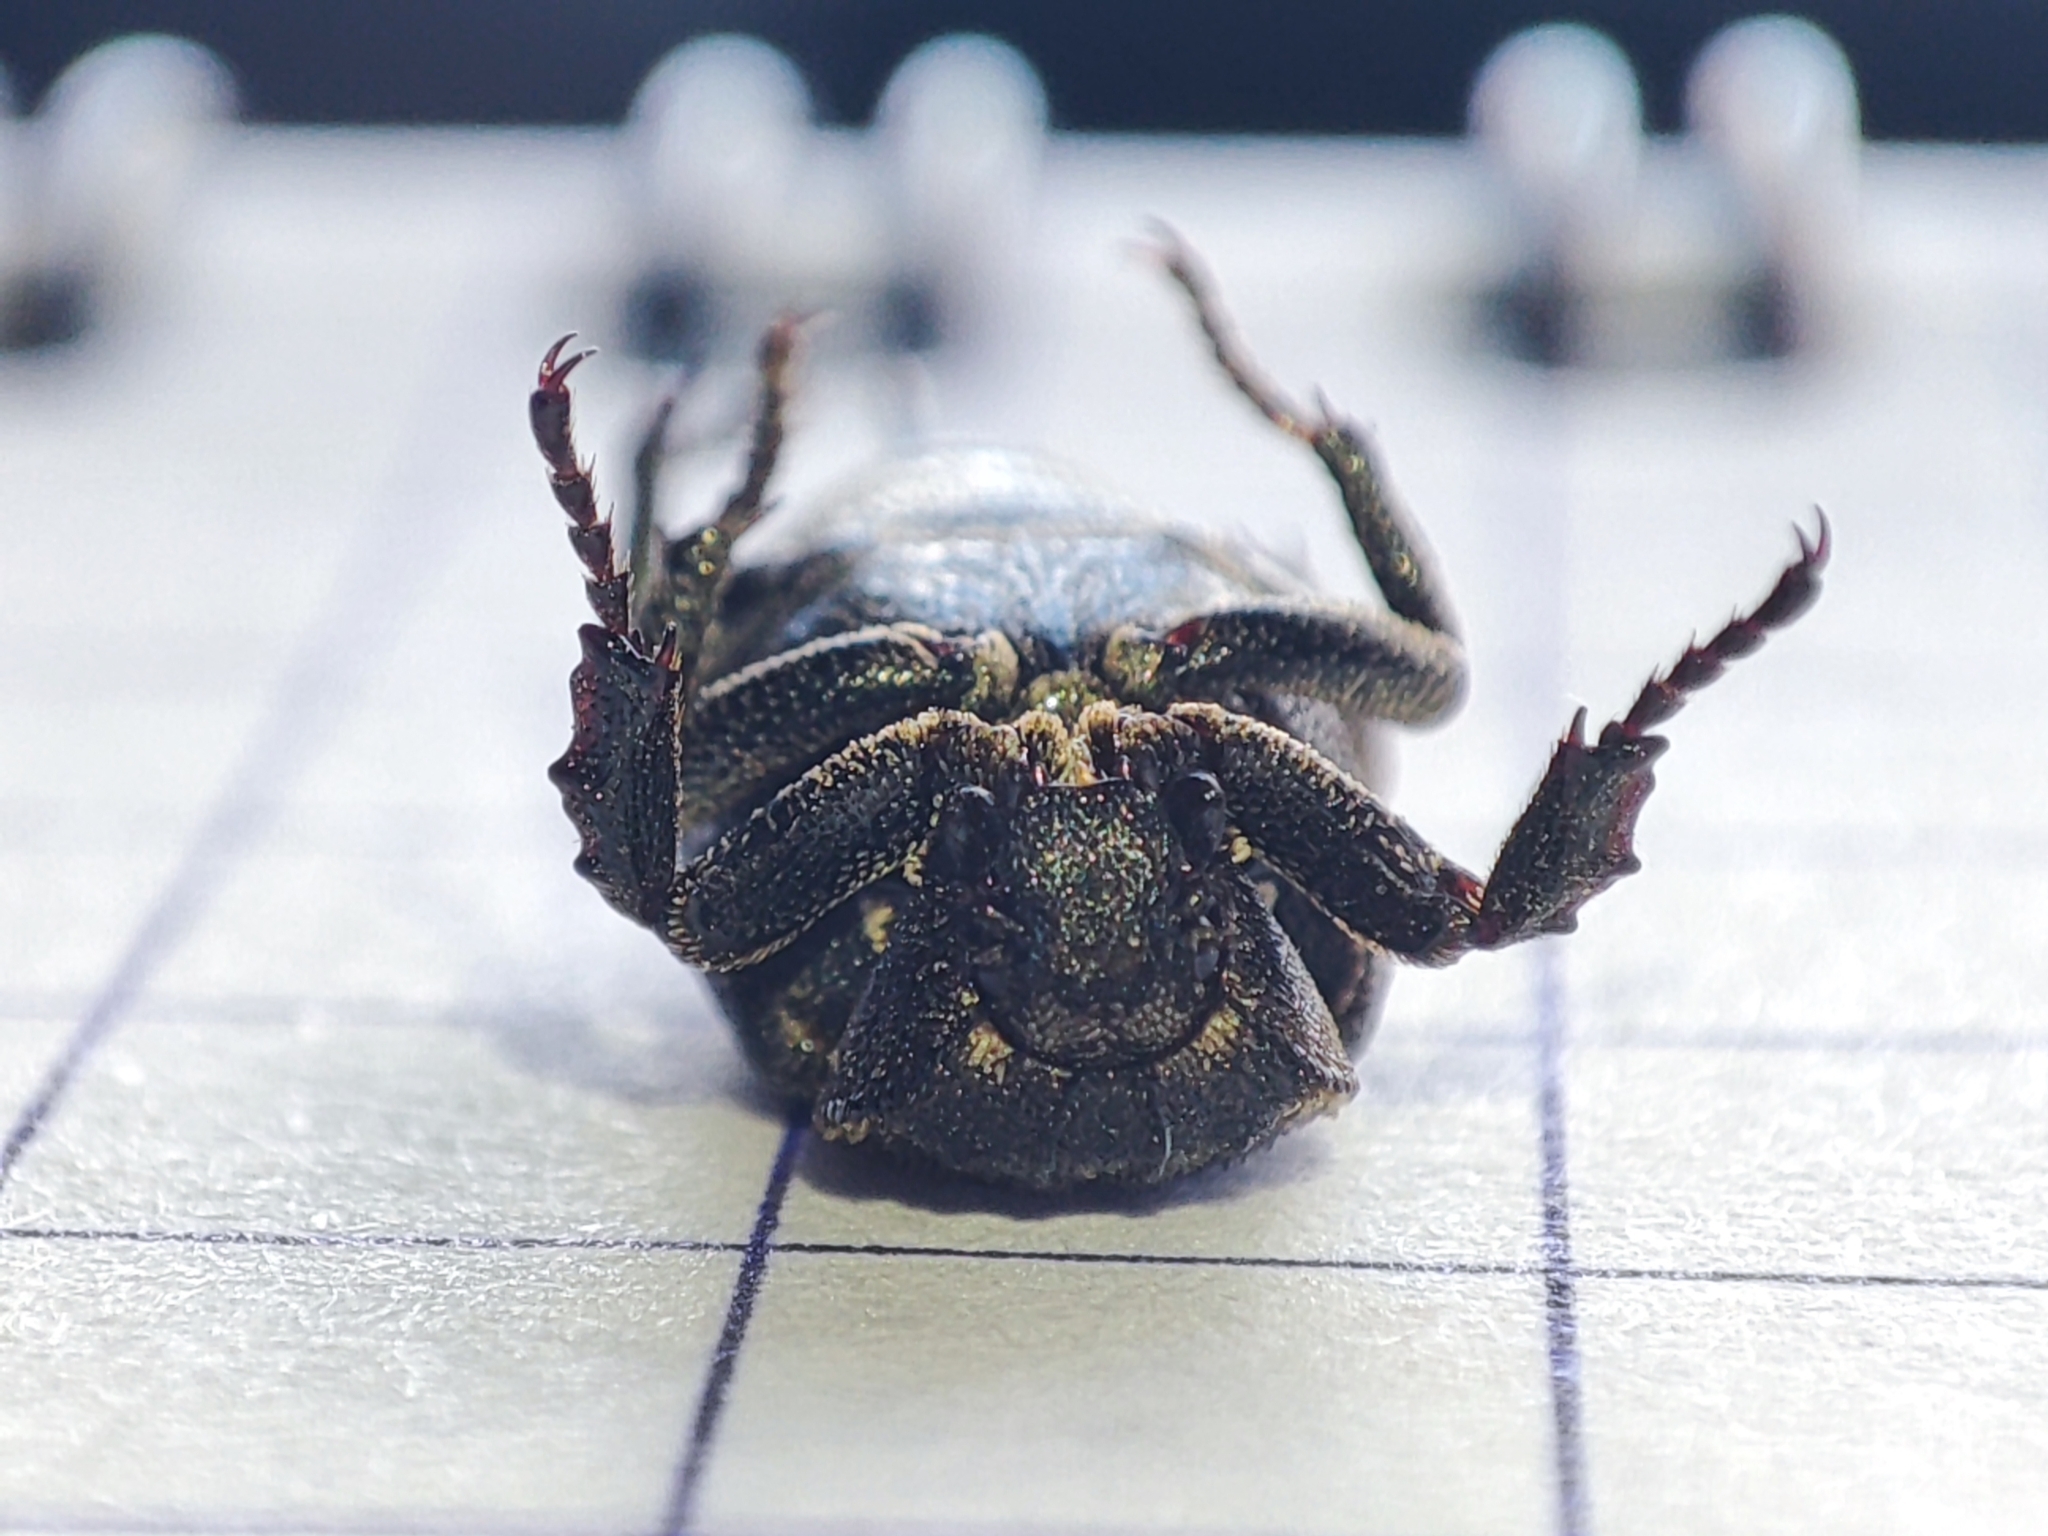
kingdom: Animalia
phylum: Arthropoda
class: Insecta
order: Coleoptera
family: Scarabaeidae
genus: Valgus
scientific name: Valgus hemipterus
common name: Bug flower chafer
